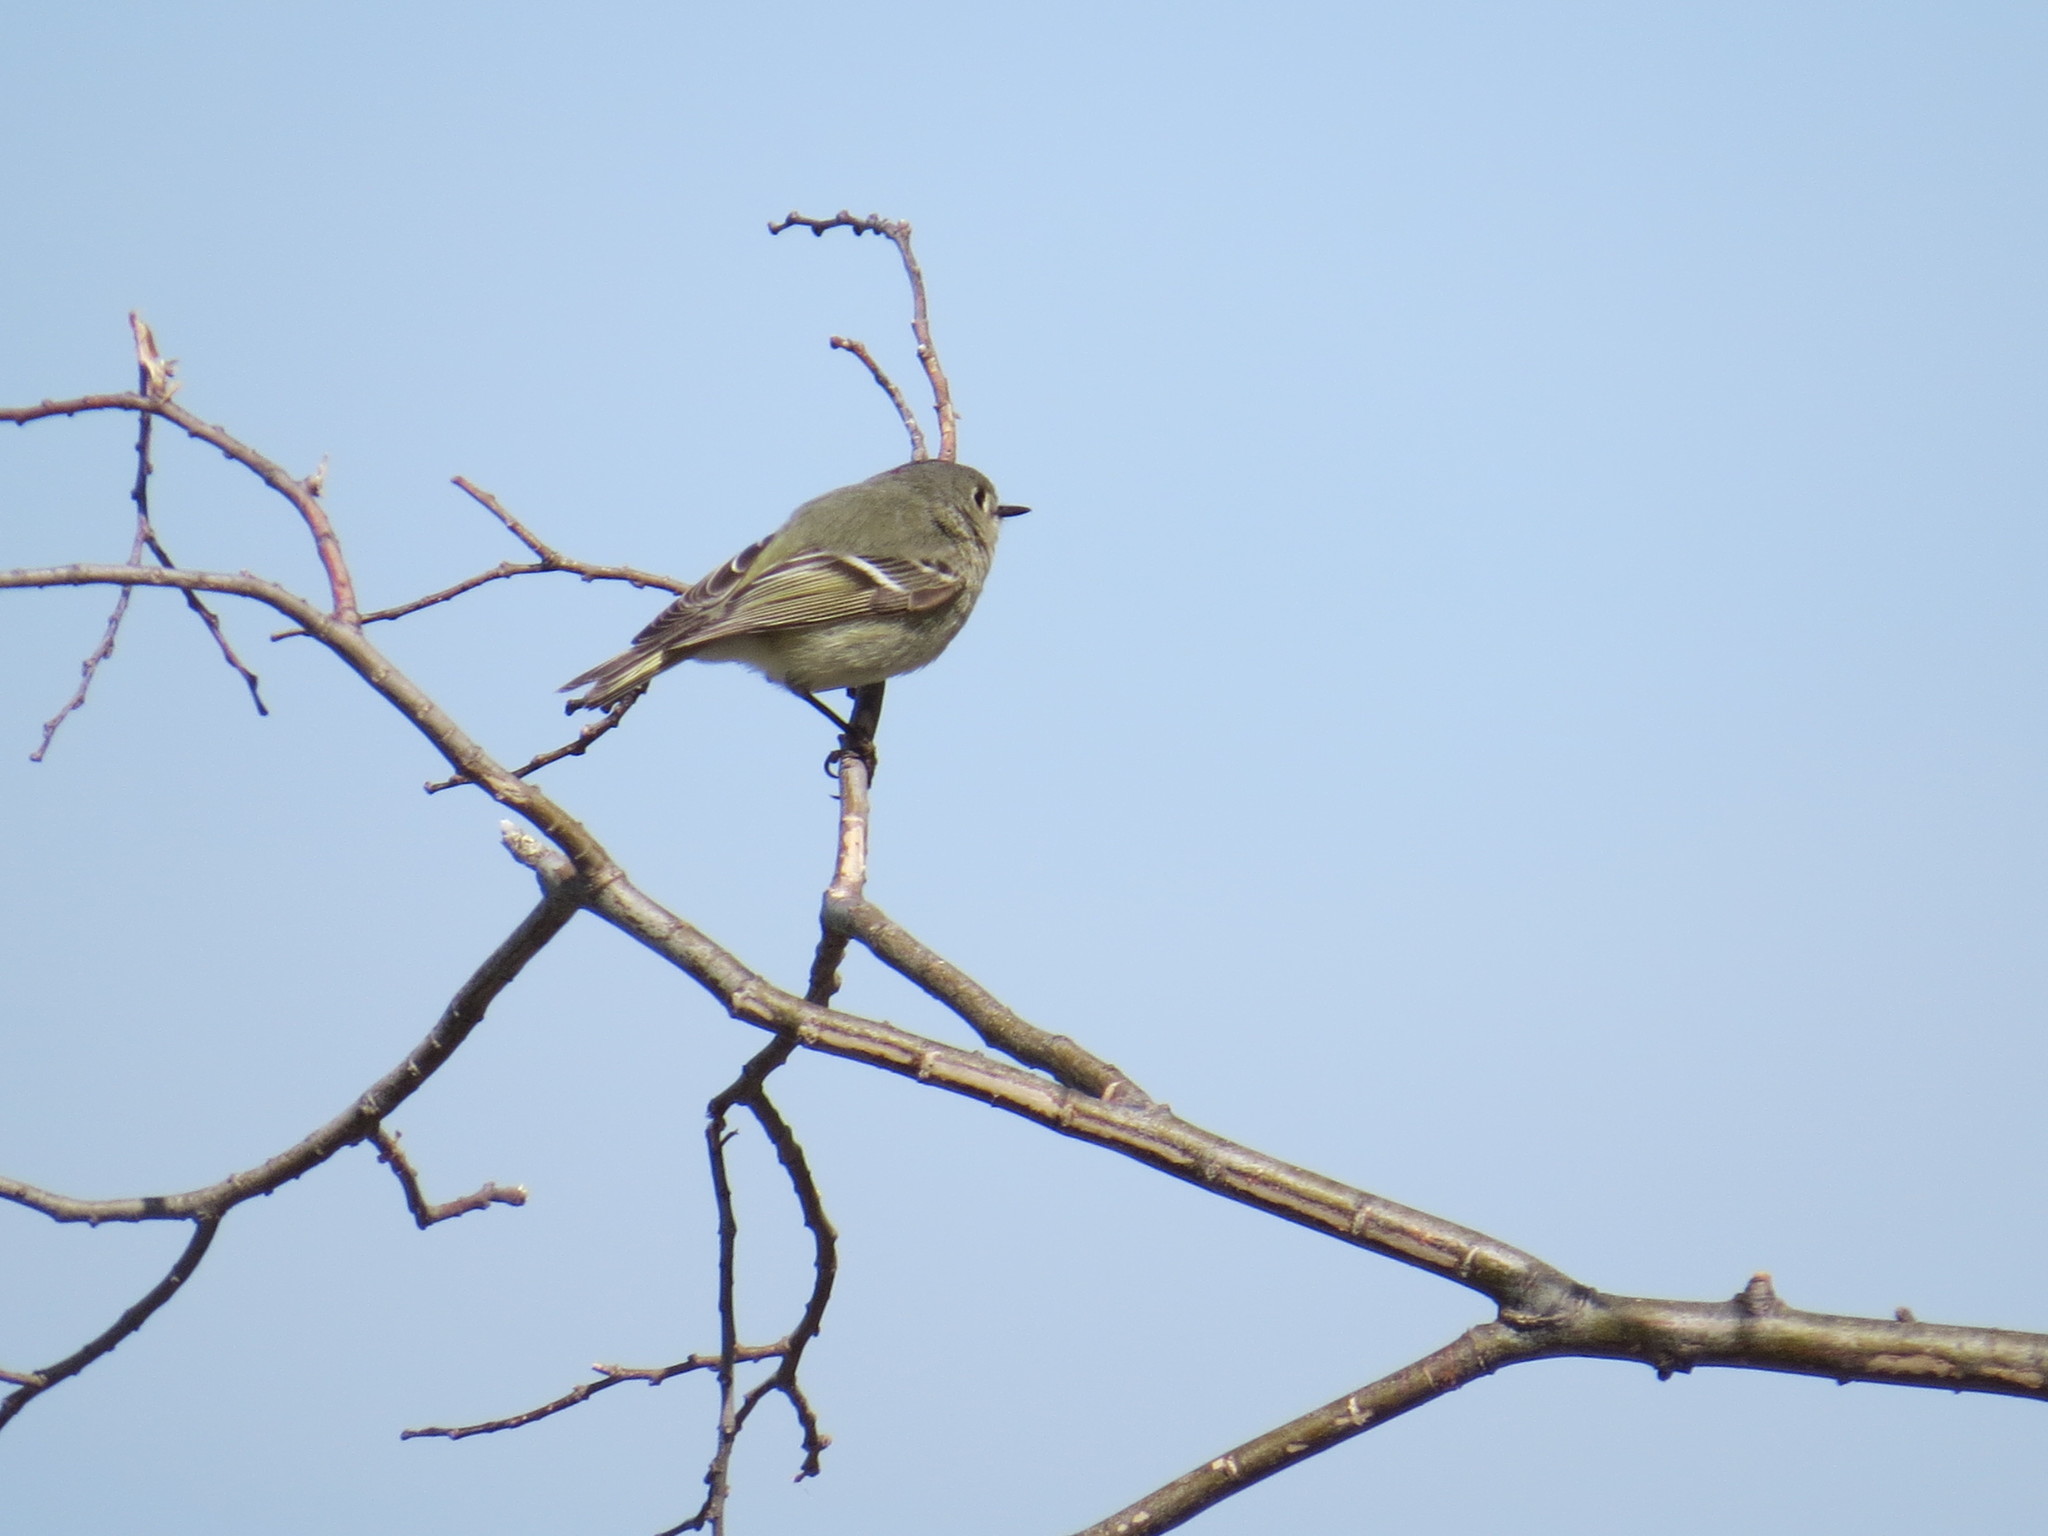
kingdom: Animalia
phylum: Chordata
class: Aves
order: Passeriformes
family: Regulidae
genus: Regulus
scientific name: Regulus calendula
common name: Ruby-crowned kinglet
